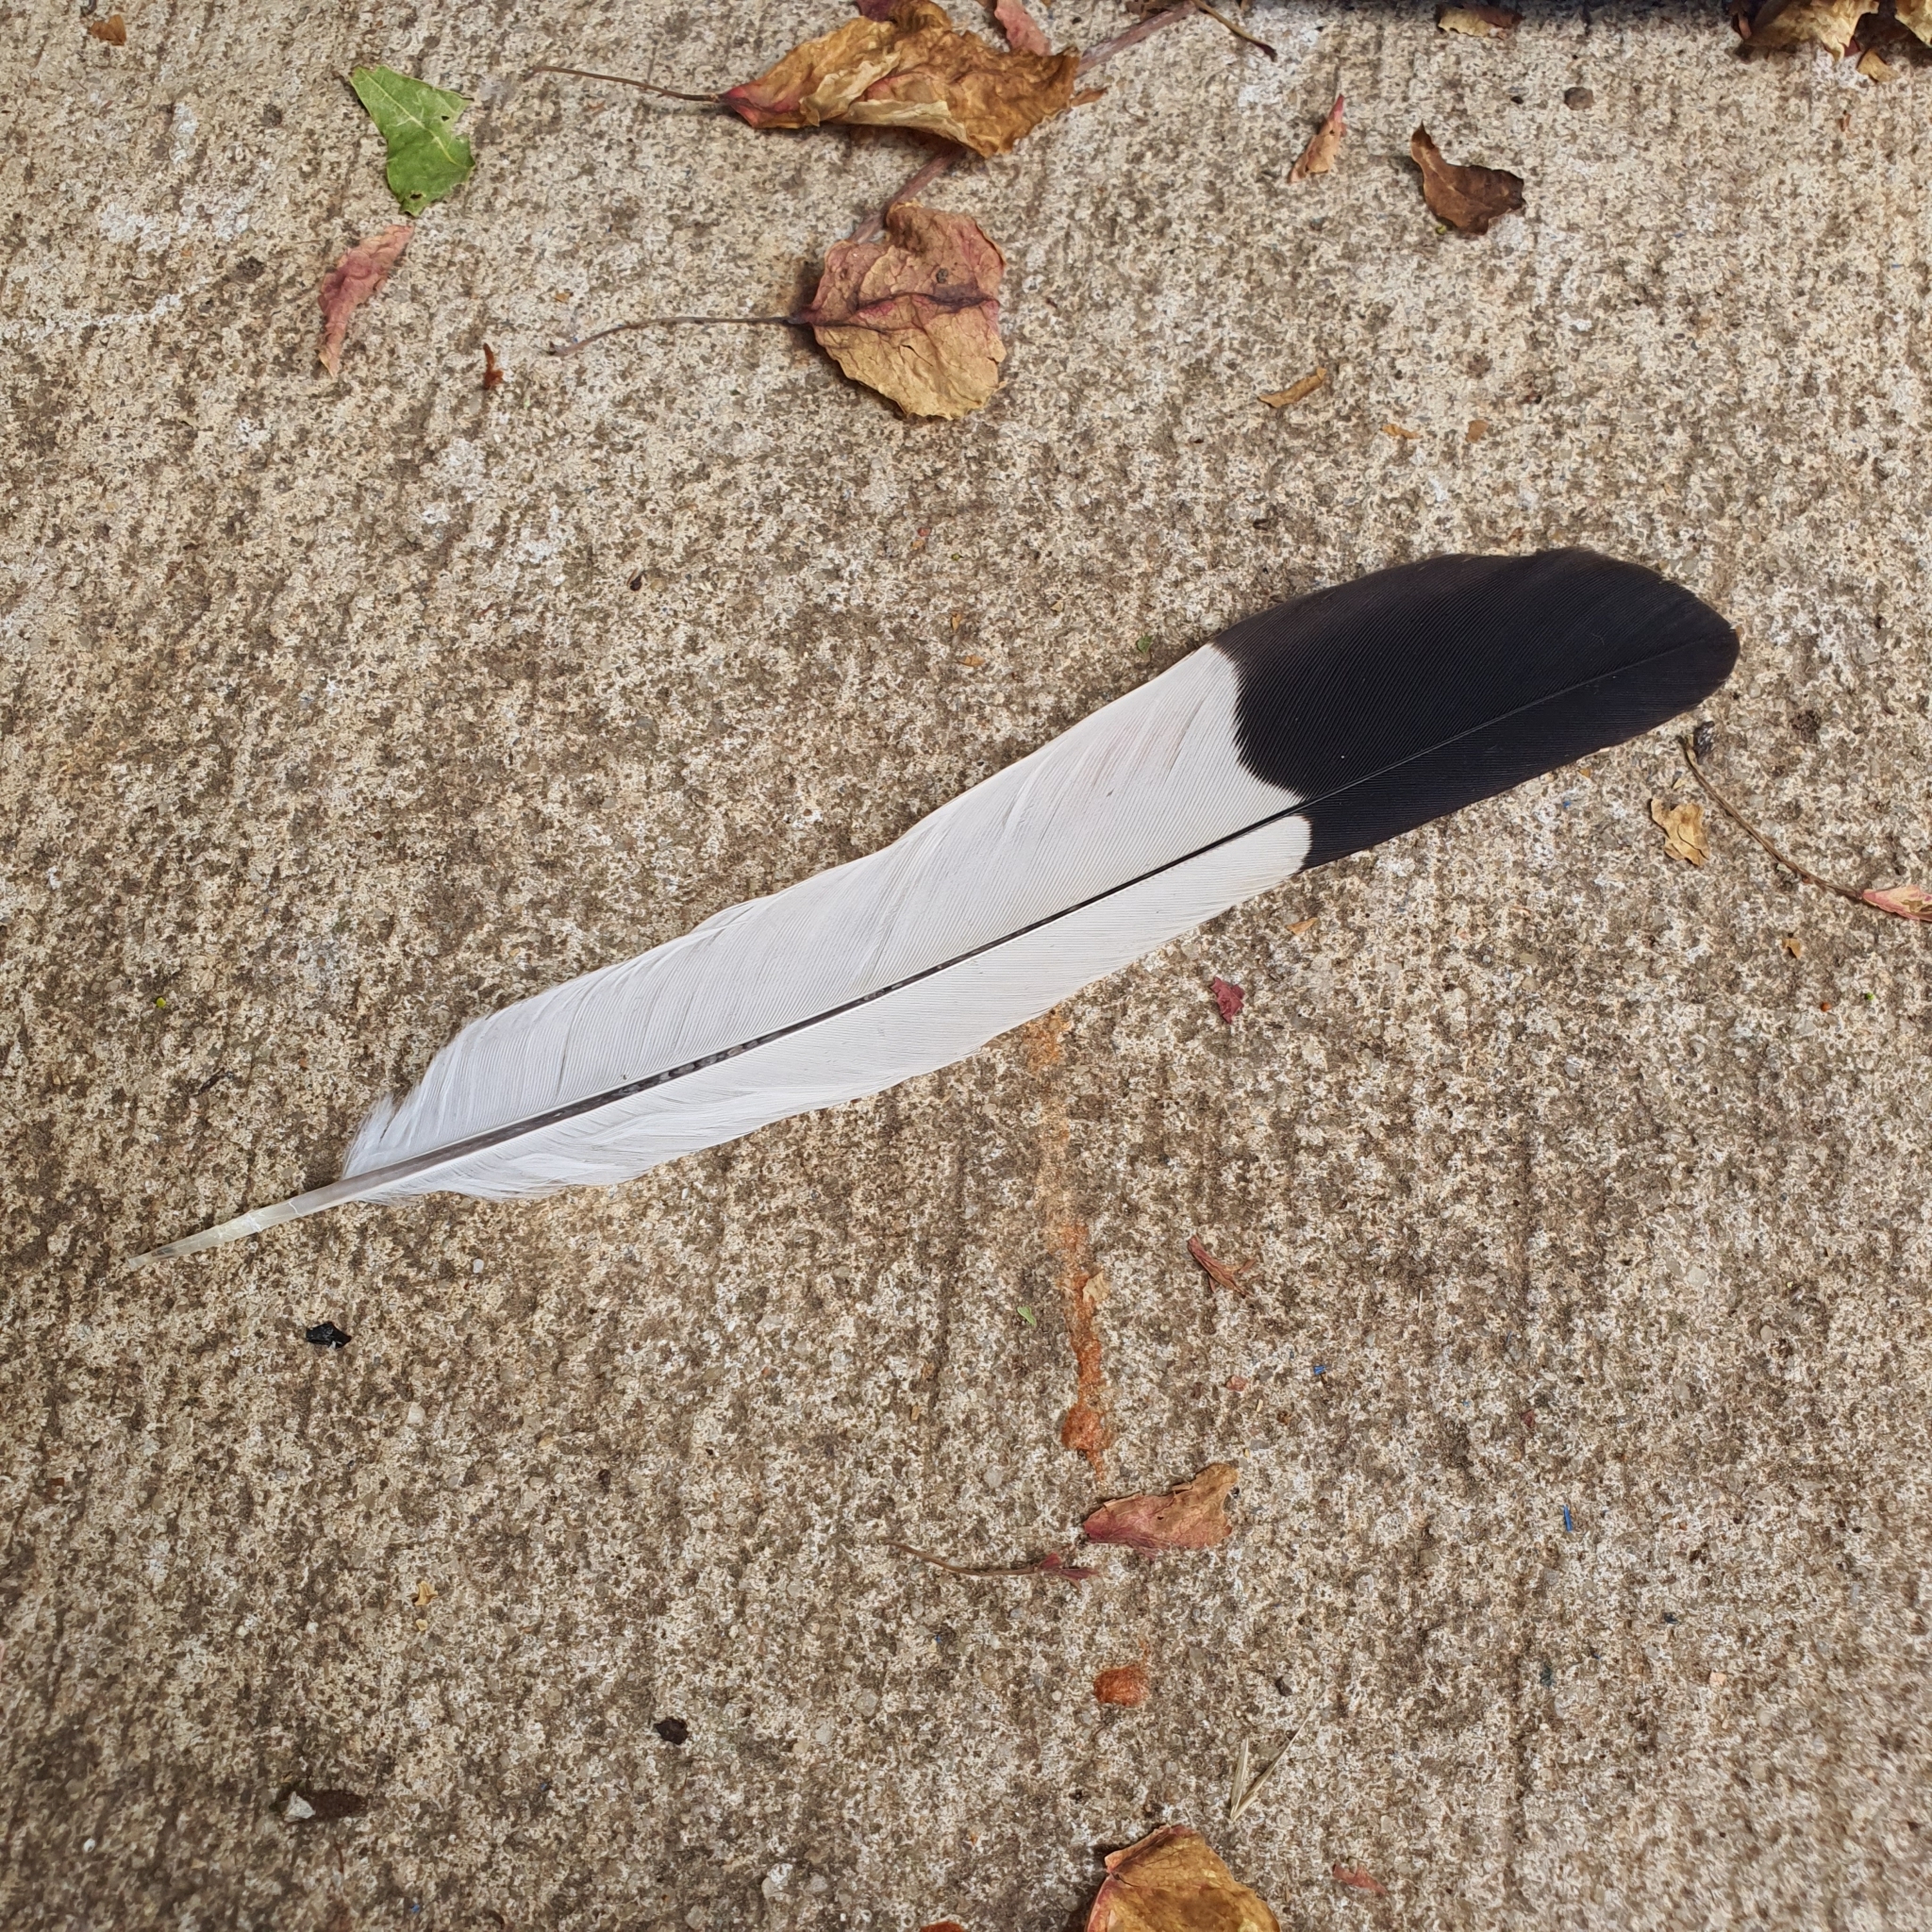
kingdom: Animalia
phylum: Chordata
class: Aves
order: Passeriformes
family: Cracticidae
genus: Gymnorhina
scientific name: Gymnorhina tibicen
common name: Australian magpie
